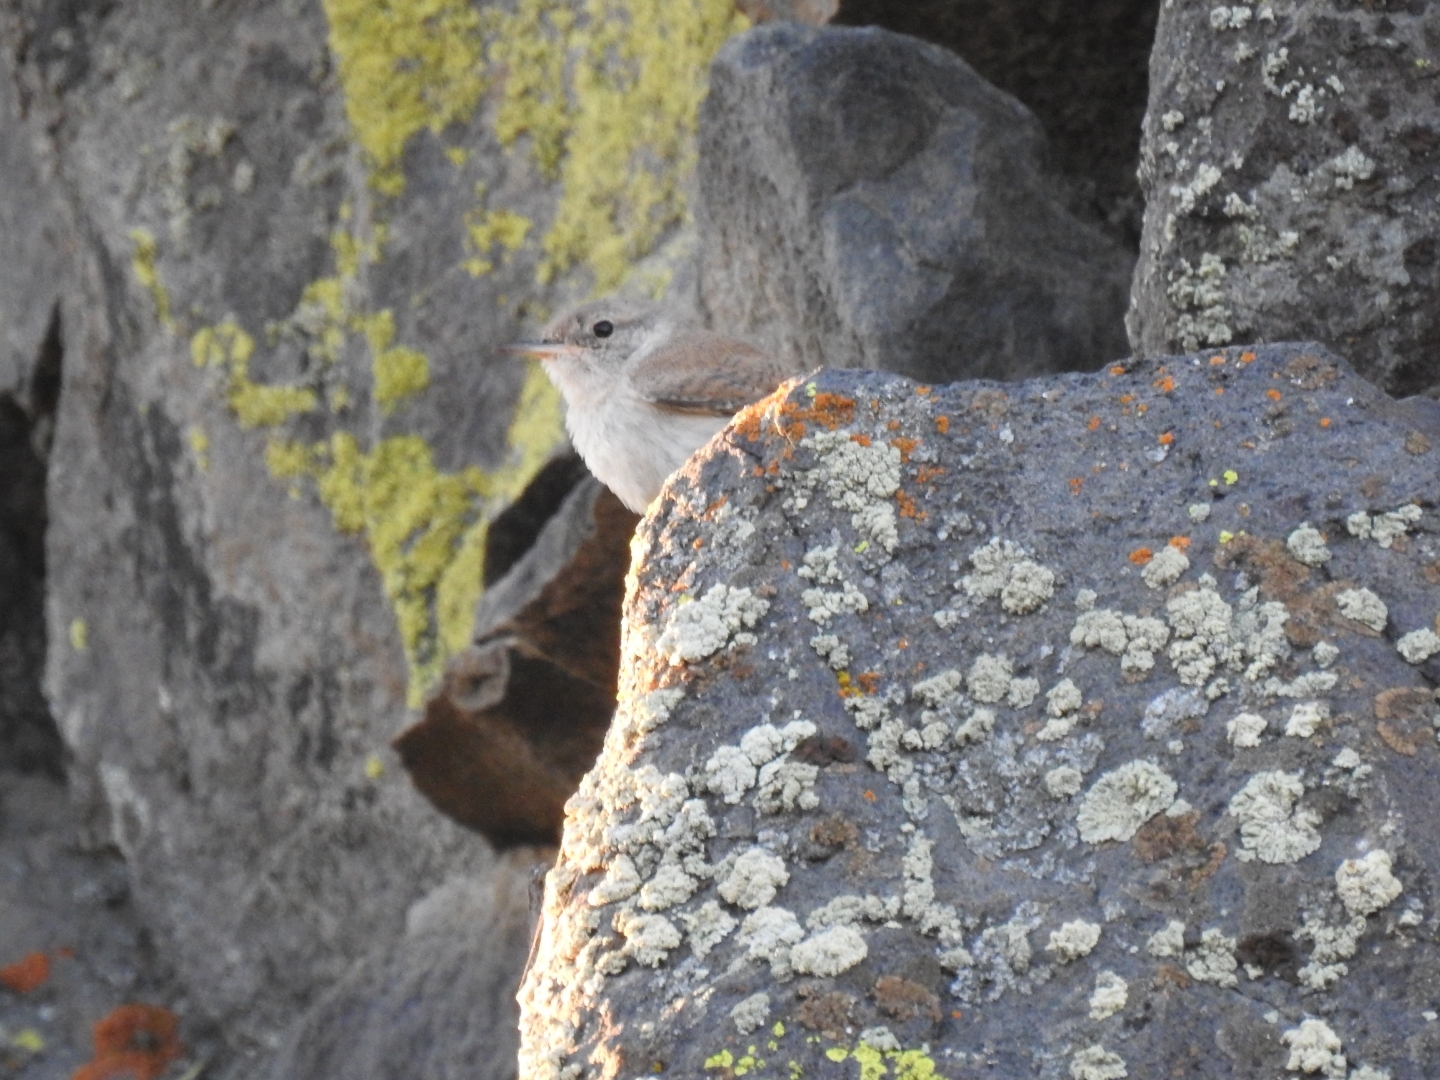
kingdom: Animalia
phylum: Chordata
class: Aves
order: Passeriformes
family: Troglodytidae
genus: Salpinctes
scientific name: Salpinctes obsoletus
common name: Rock wren
